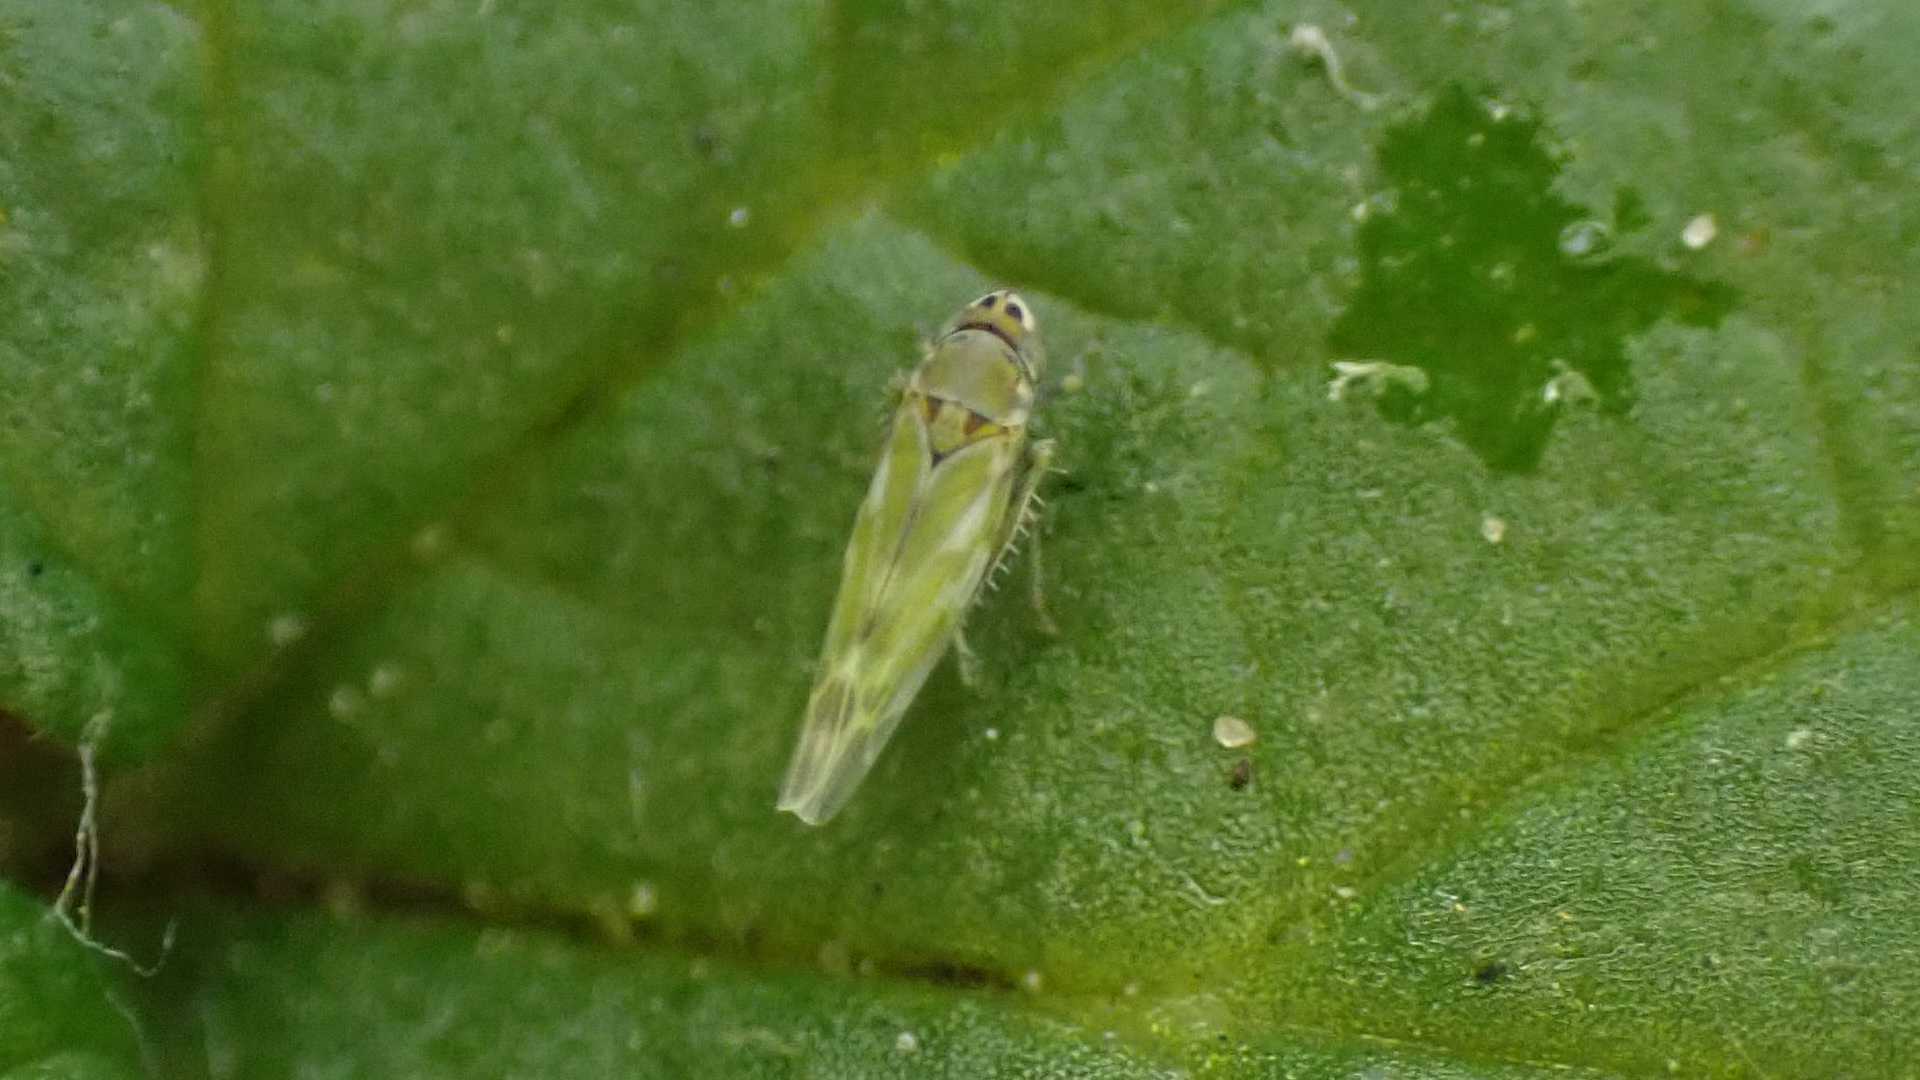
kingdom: Animalia
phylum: Arthropoda
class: Insecta
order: Hemiptera
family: Cicadellidae
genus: Frutioidia
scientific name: Frutioidia bisignata
